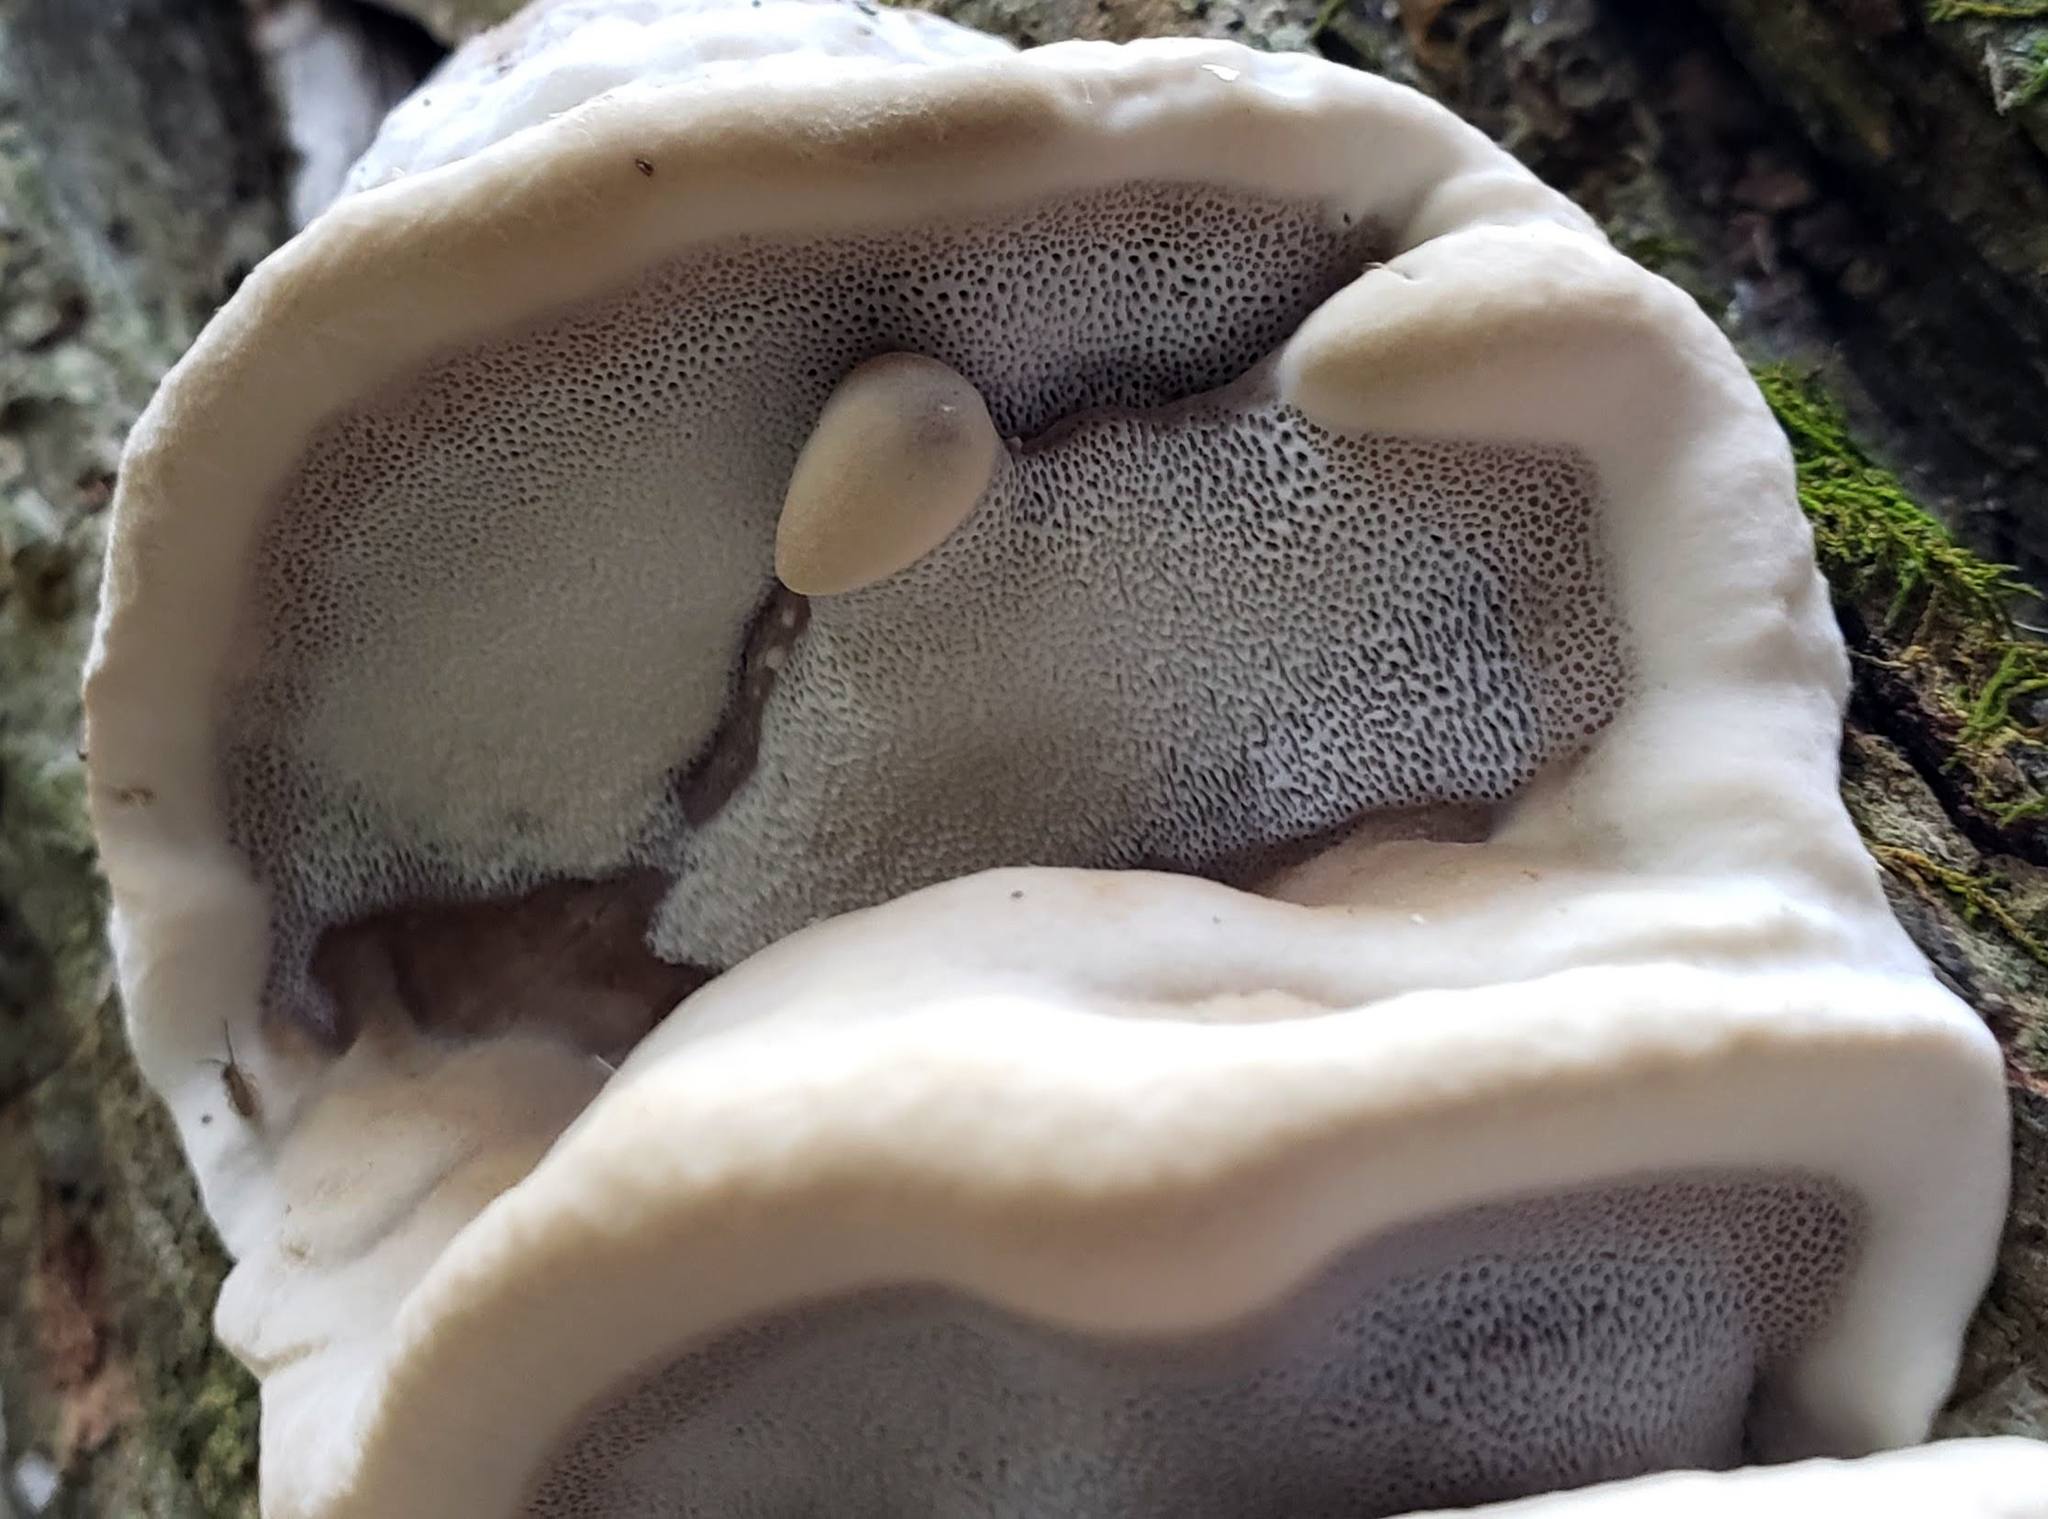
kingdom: Fungi
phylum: Basidiomycota
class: Agaricomycetes
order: Polyporales
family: Phanerochaetaceae
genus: Bjerkandera
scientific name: Bjerkandera adusta
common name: Smoky bracket
